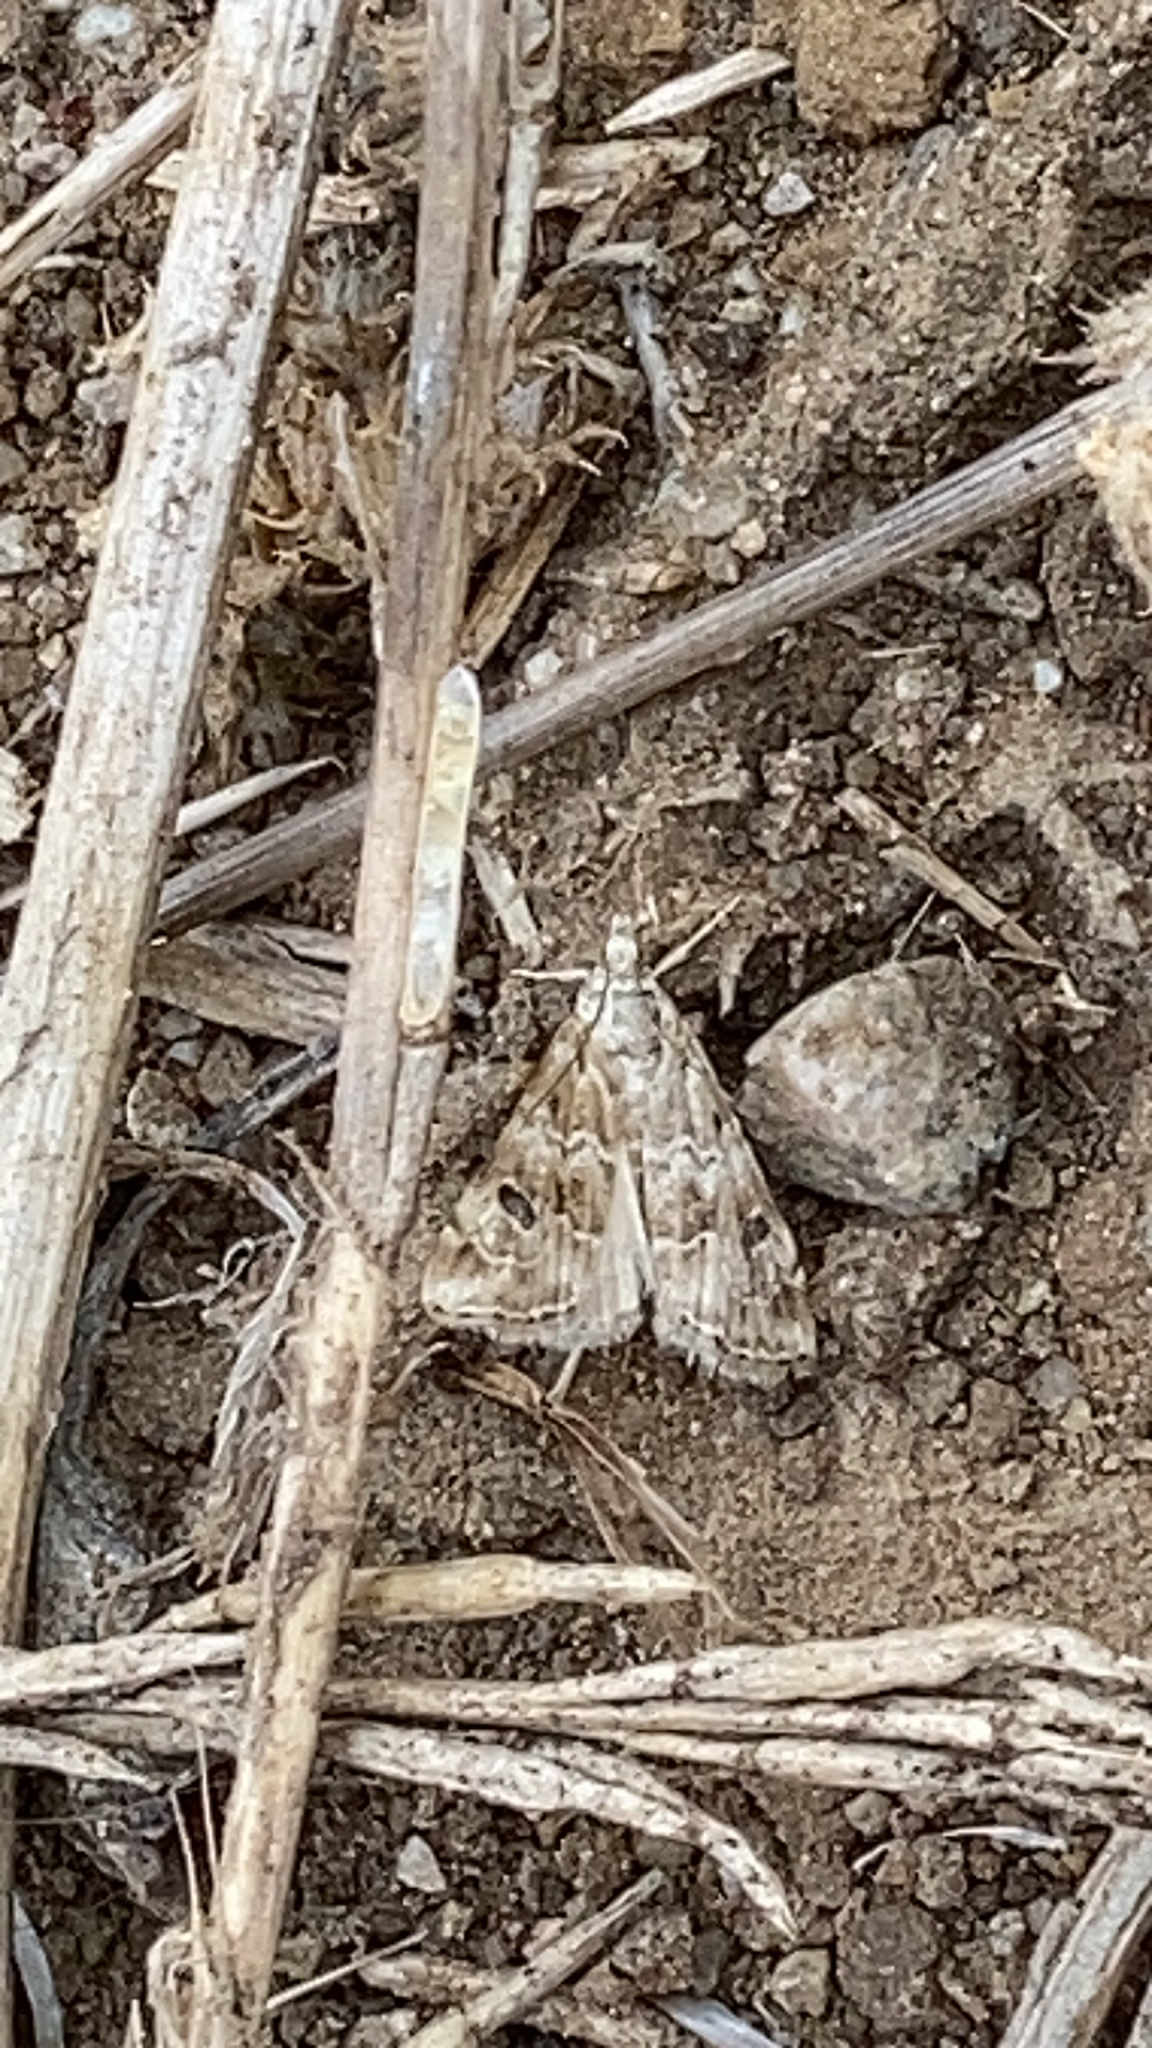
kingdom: Animalia
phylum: Arthropoda
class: Insecta
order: Lepidoptera
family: Crambidae
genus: Hellula
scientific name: Hellula rogatalis
